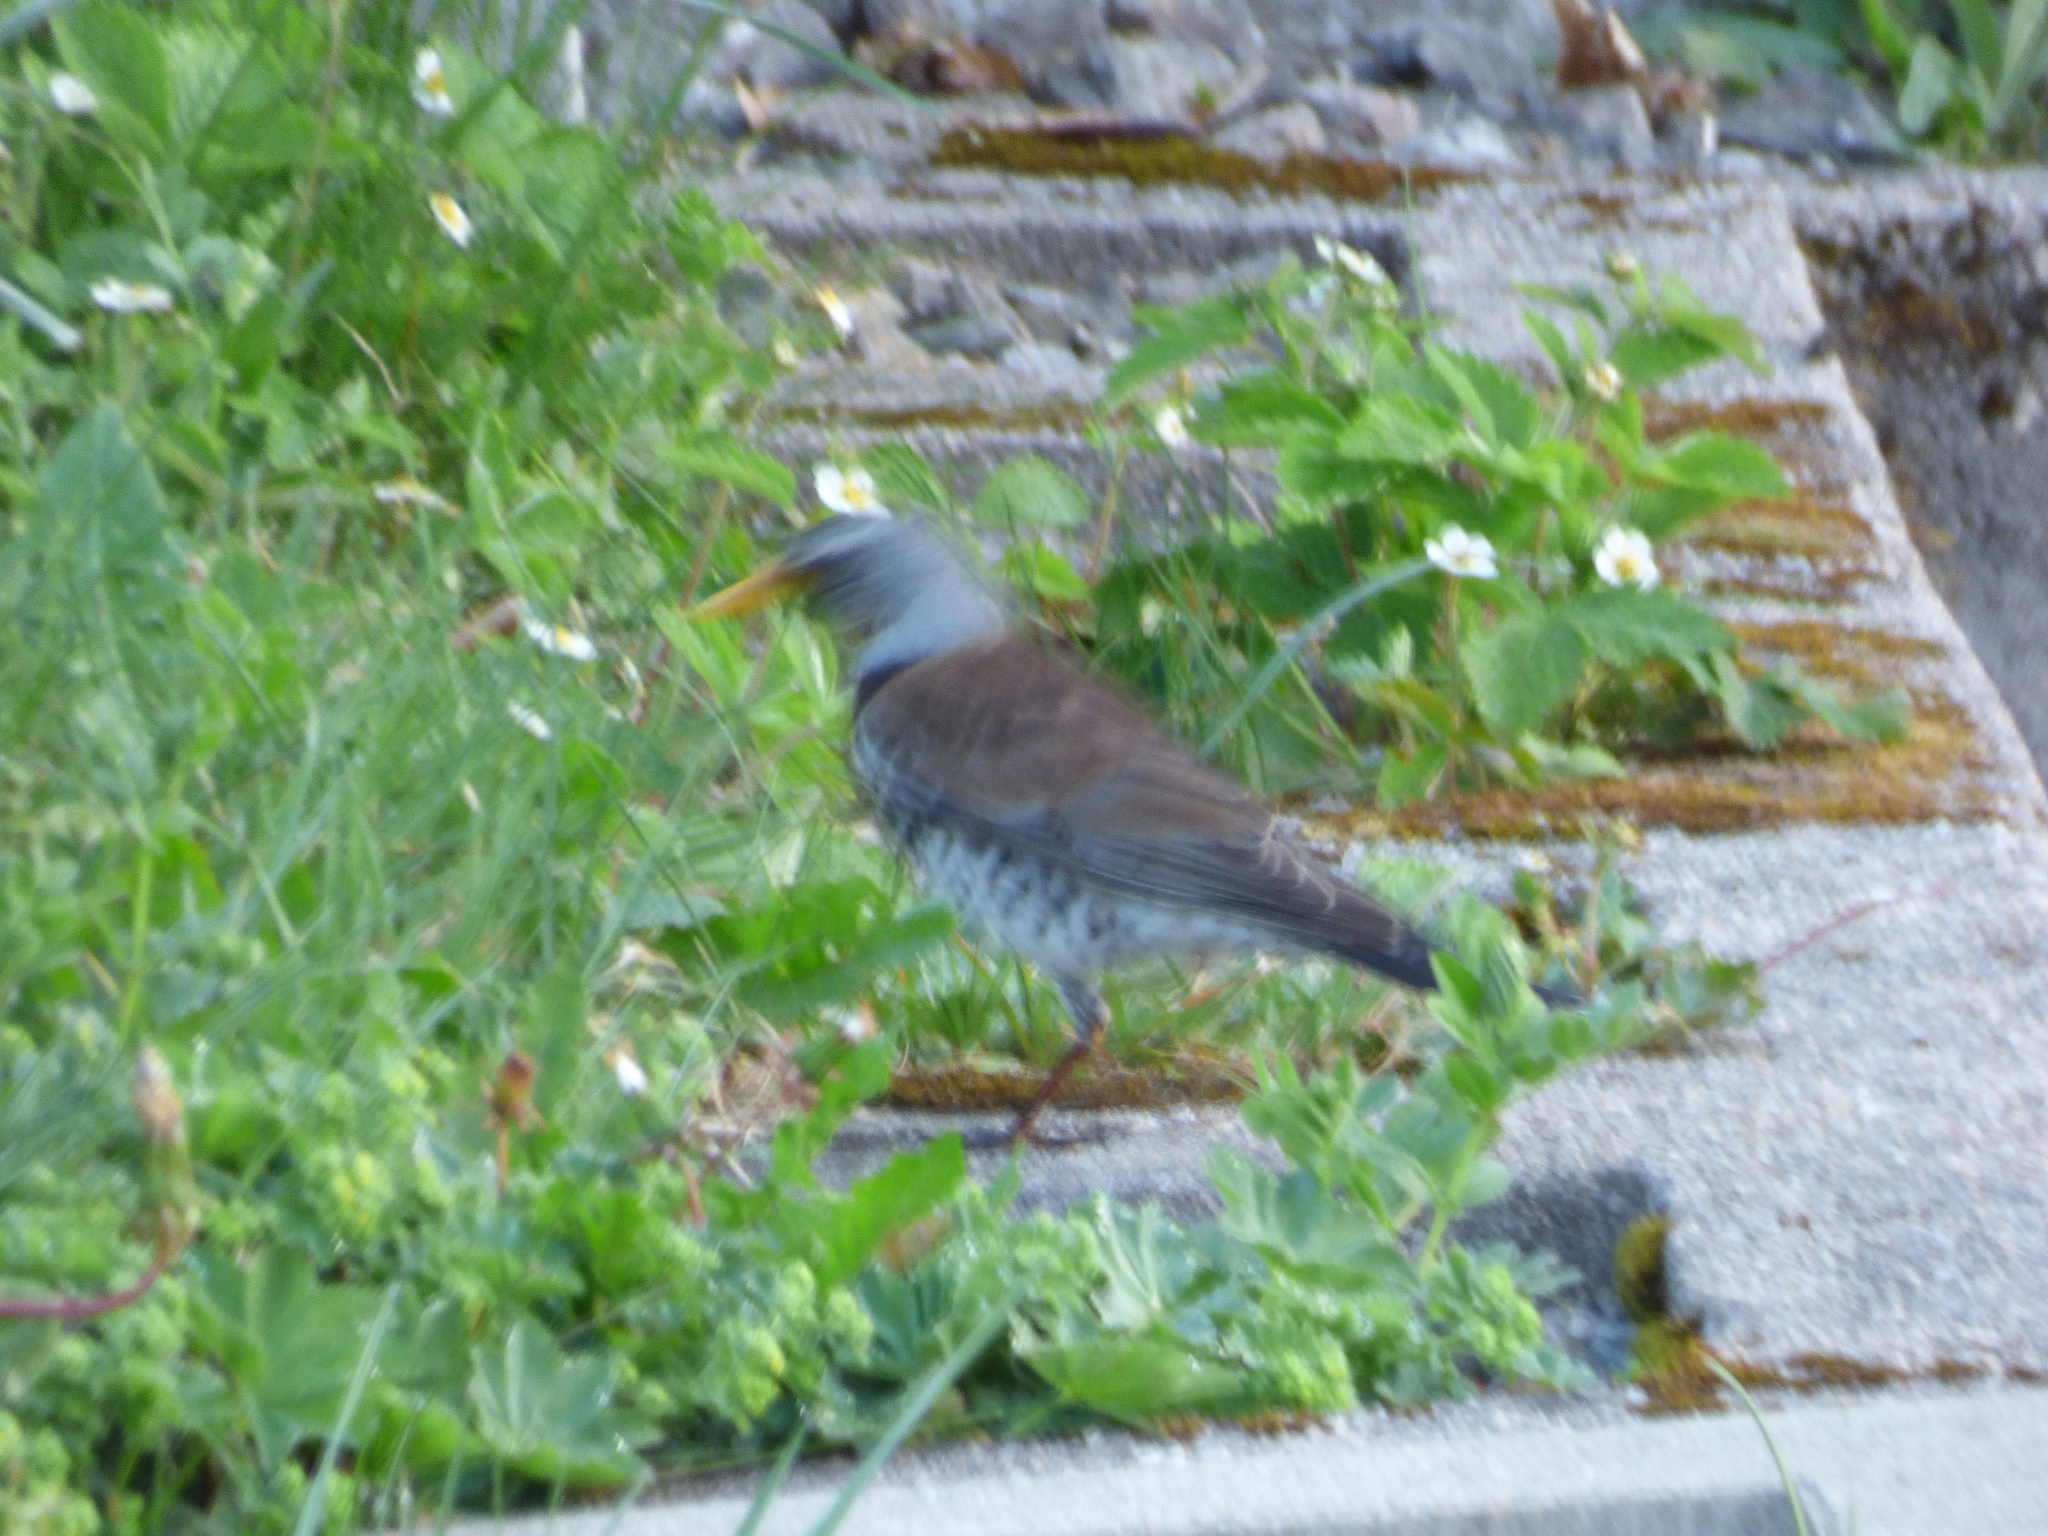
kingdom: Animalia
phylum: Chordata
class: Aves
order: Passeriformes
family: Turdidae
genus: Turdus
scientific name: Turdus pilaris
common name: Fieldfare
